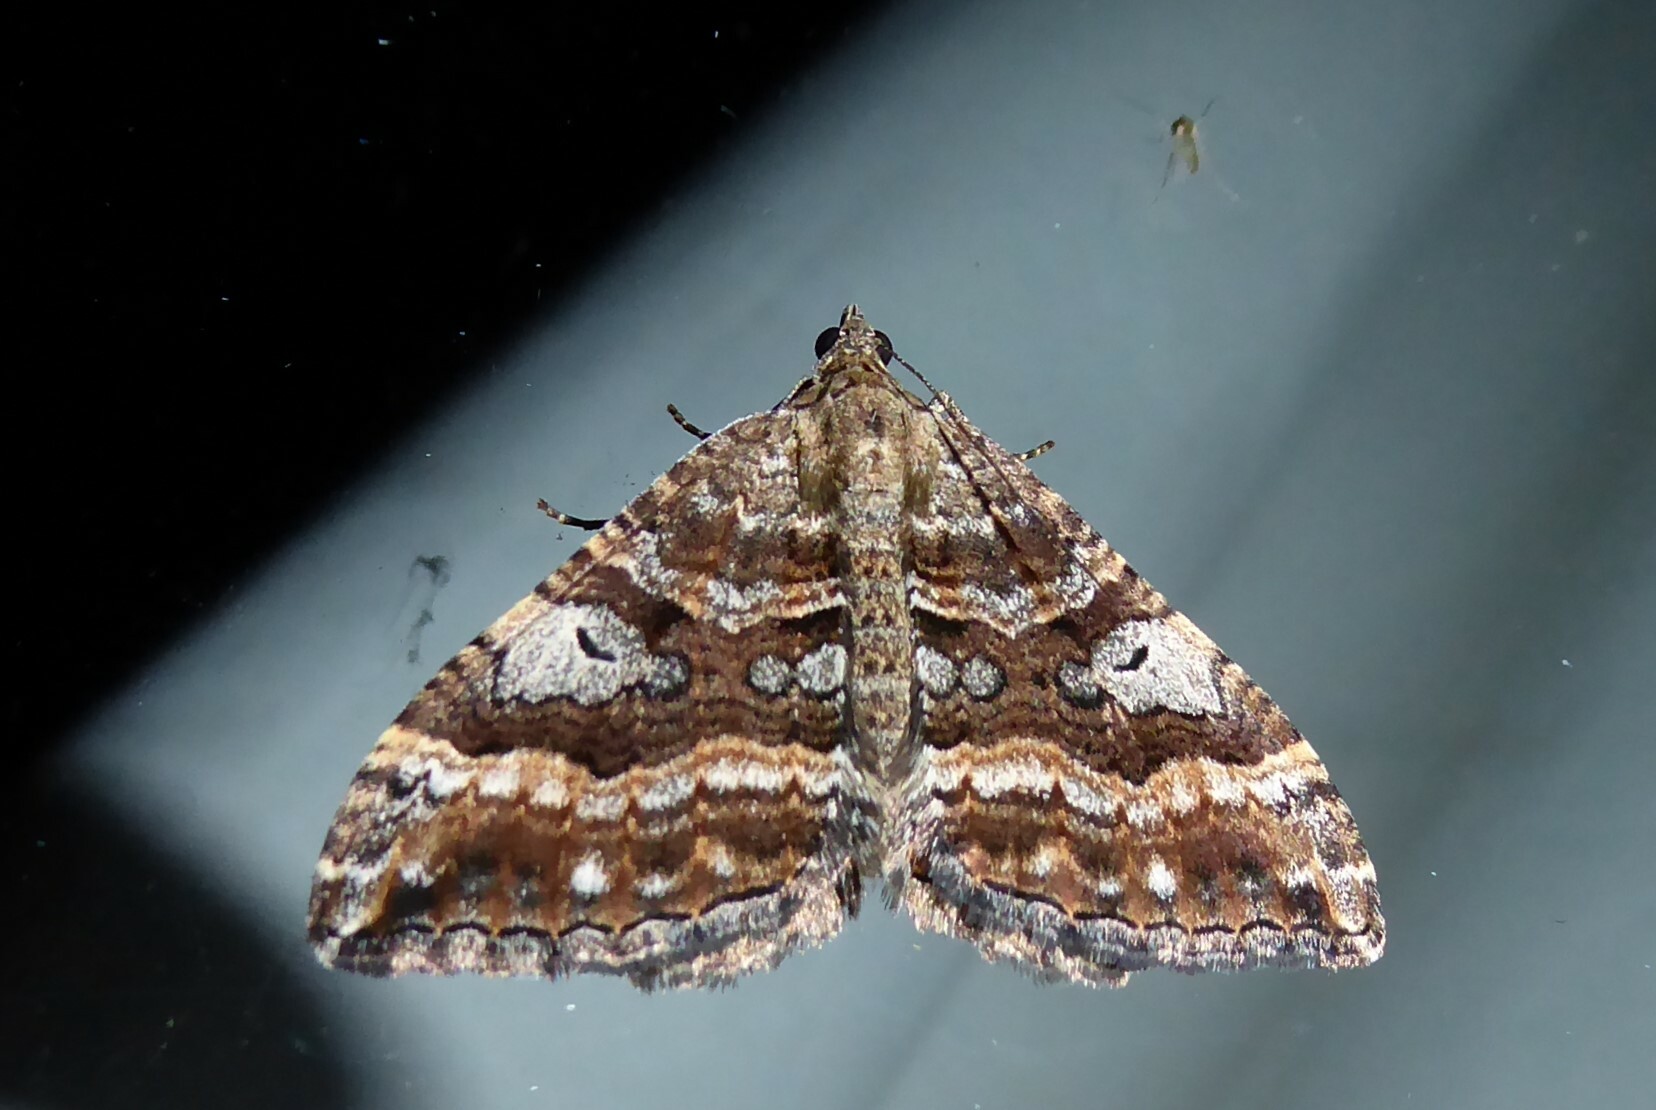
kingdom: Animalia
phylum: Arthropoda
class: Insecta
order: Lepidoptera
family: Geometridae
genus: Hydriomena
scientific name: Hydriomena deltoidata
